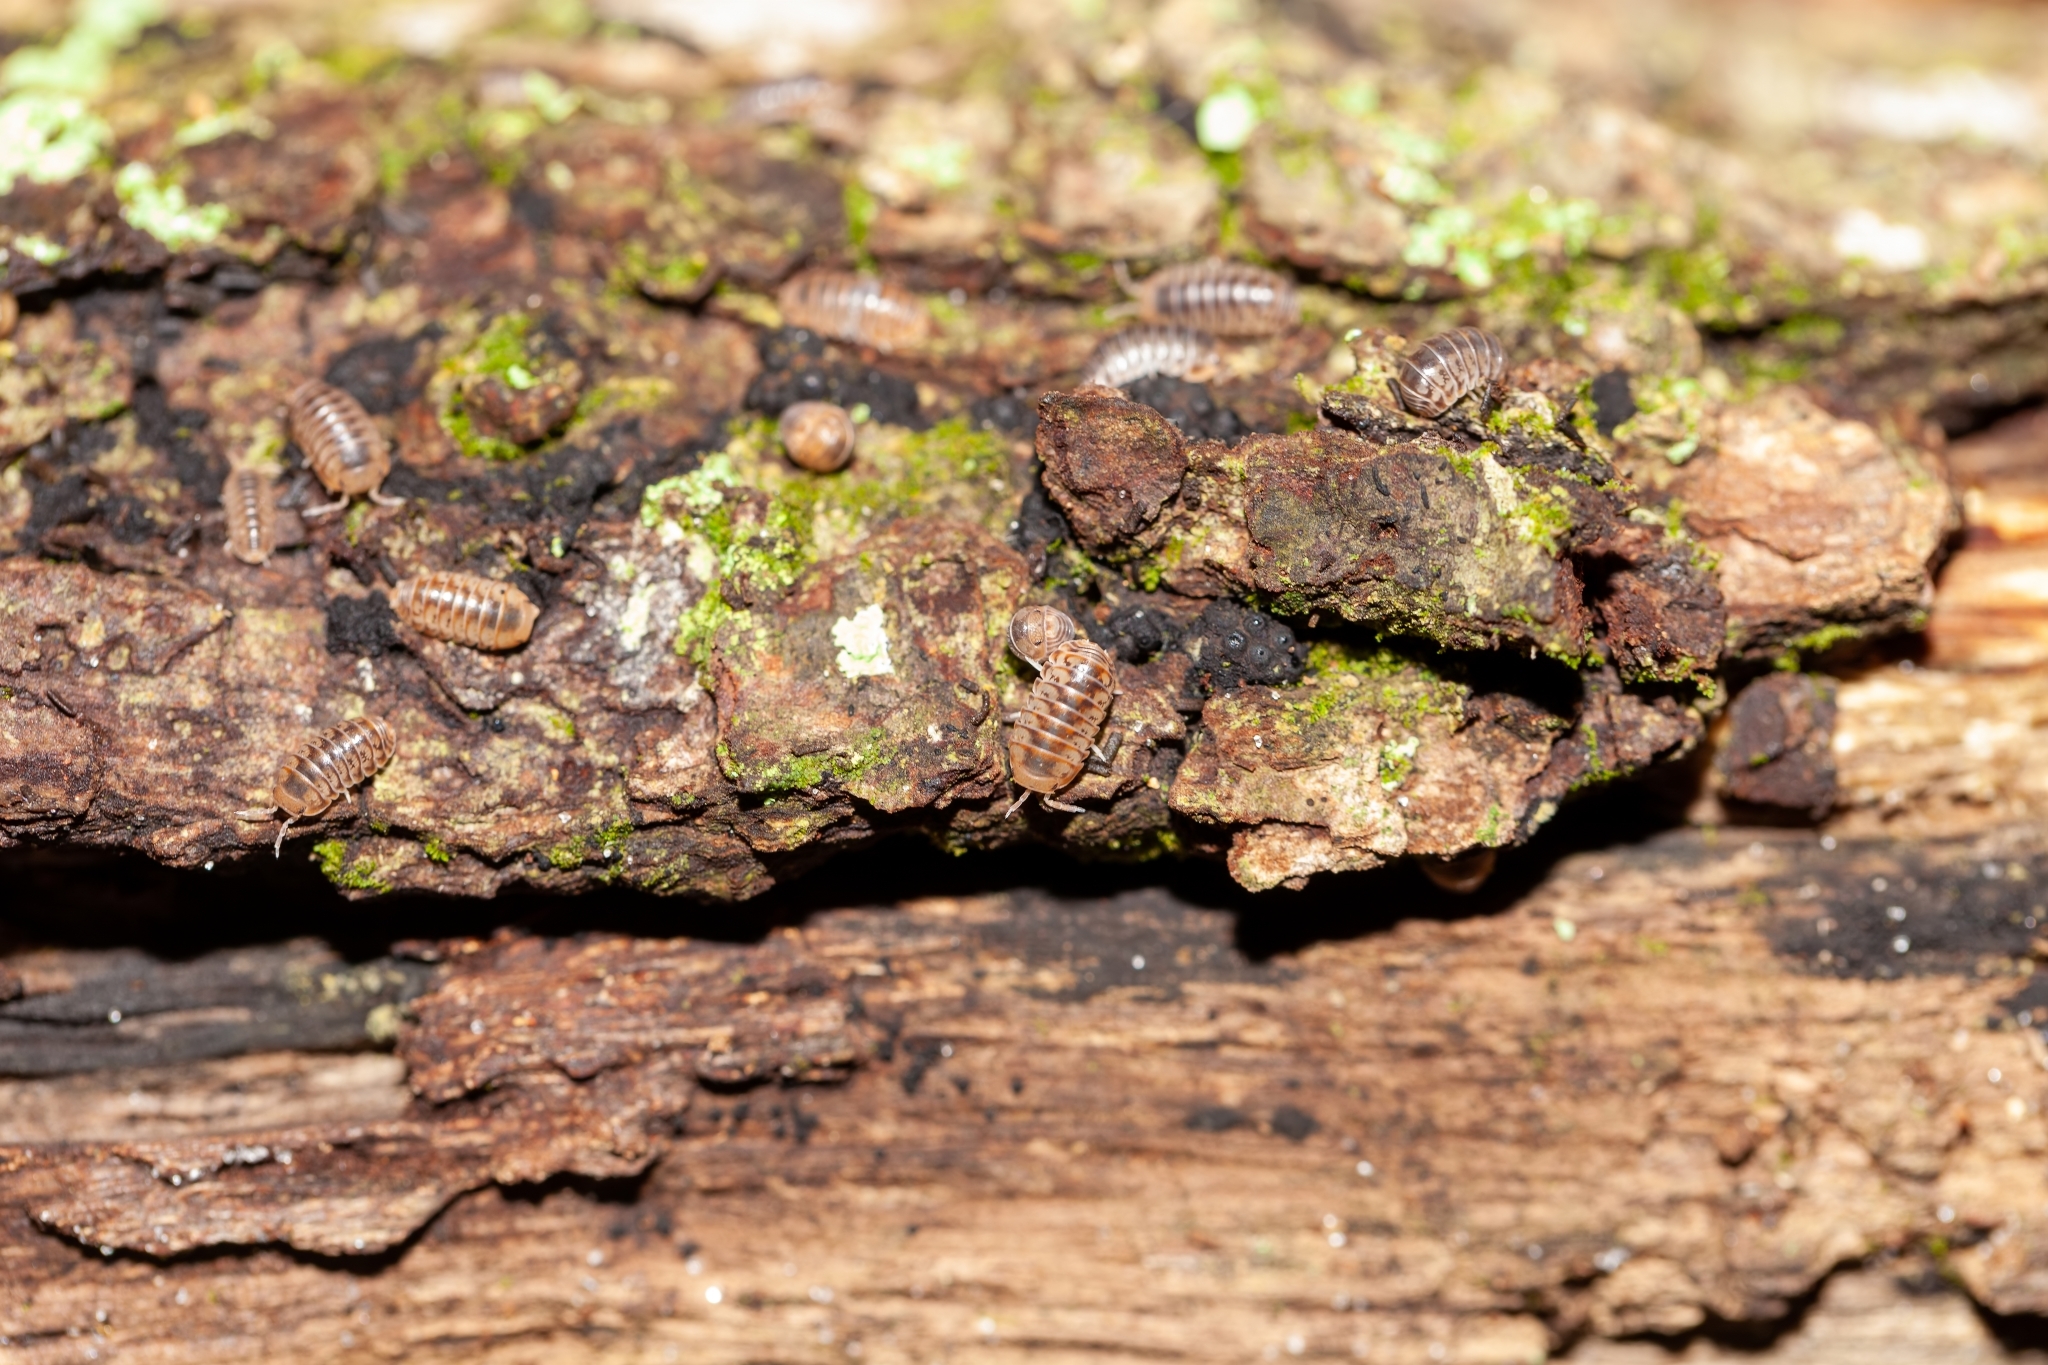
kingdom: Animalia
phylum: Arthropoda
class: Malacostraca
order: Isopoda
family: Armadillidae
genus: Venezillo
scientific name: Venezillo parvus
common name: Pillbug
